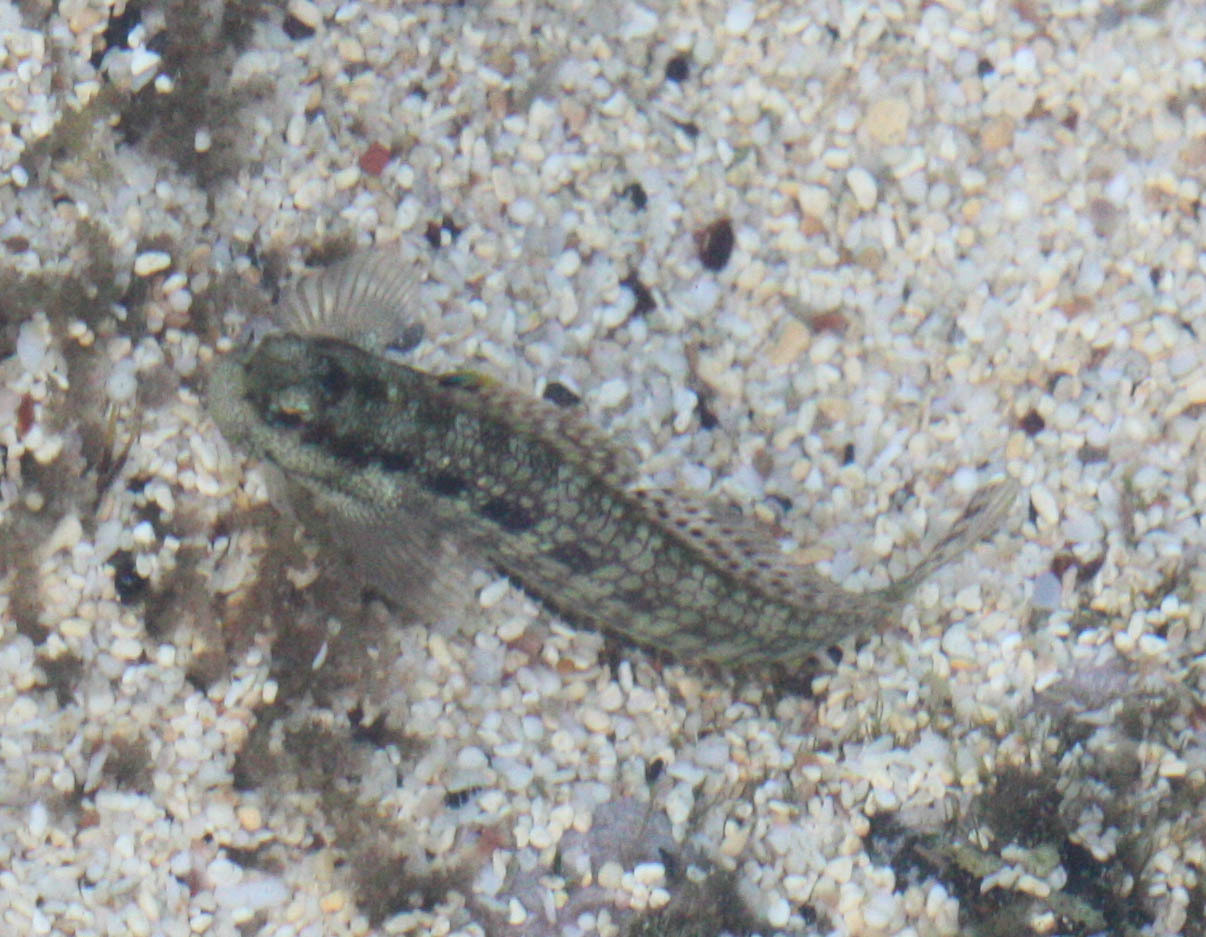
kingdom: Animalia
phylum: Chordata
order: Perciformes
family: Blenniidae
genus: Blenniella
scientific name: Blenniella gibbifrons
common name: Picture rockskipper
